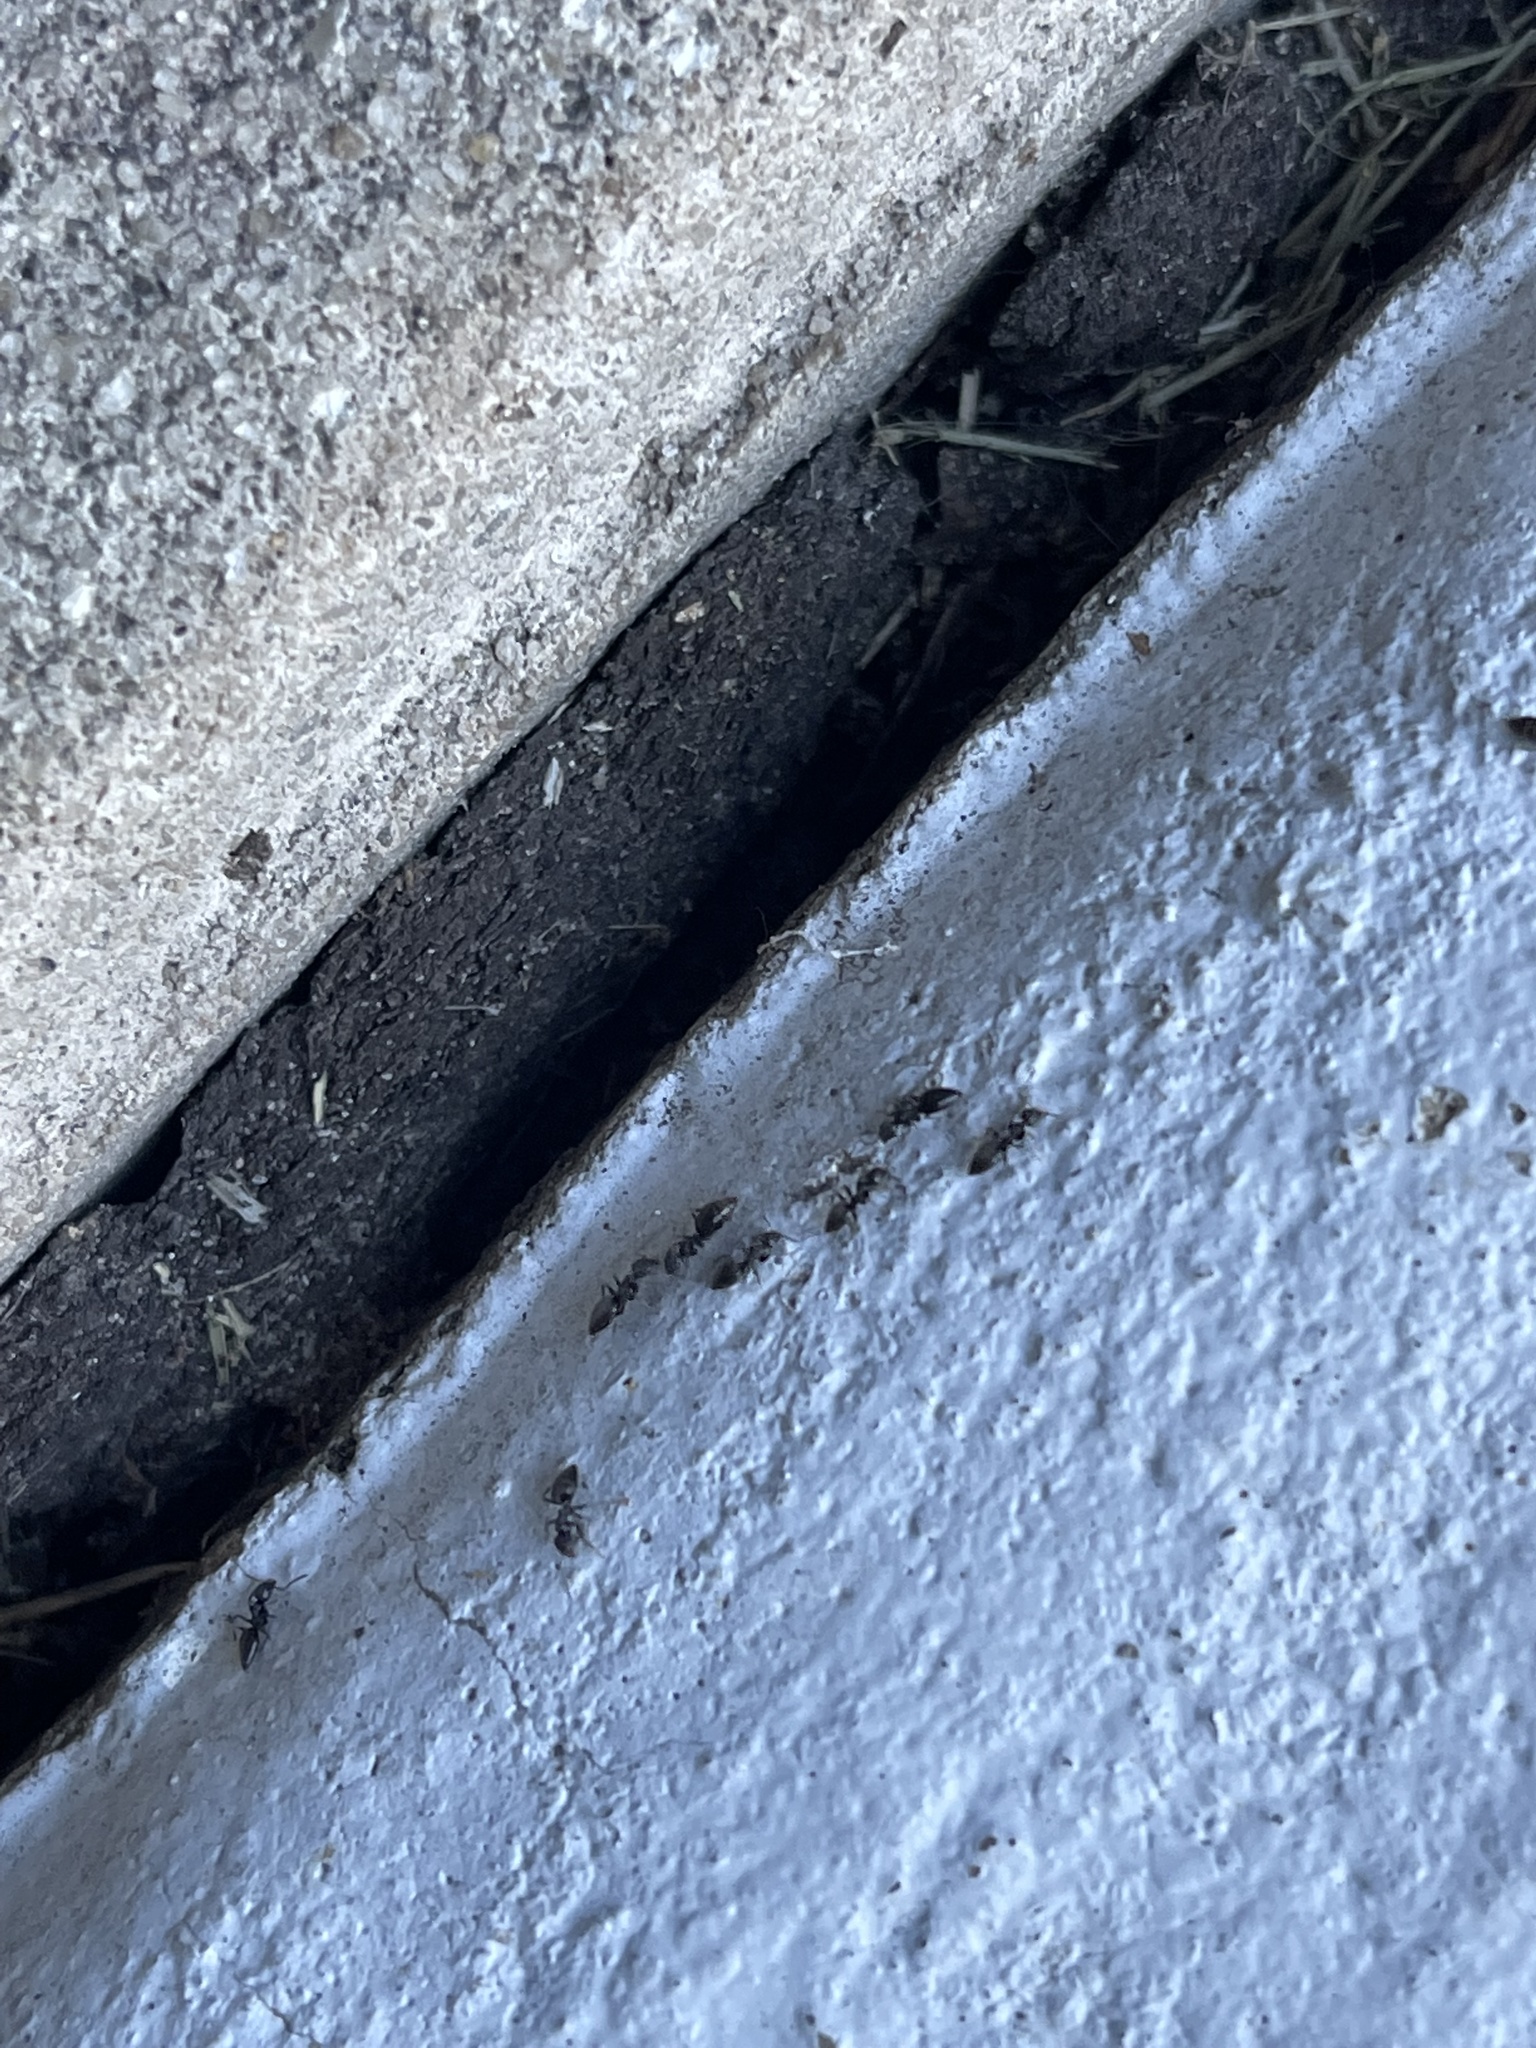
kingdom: Animalia
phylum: Arthropoda
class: Insecta
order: Hymenoptera
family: Formicidae
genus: Technomyrmex
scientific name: Technomyrmex difficilis
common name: Ant
